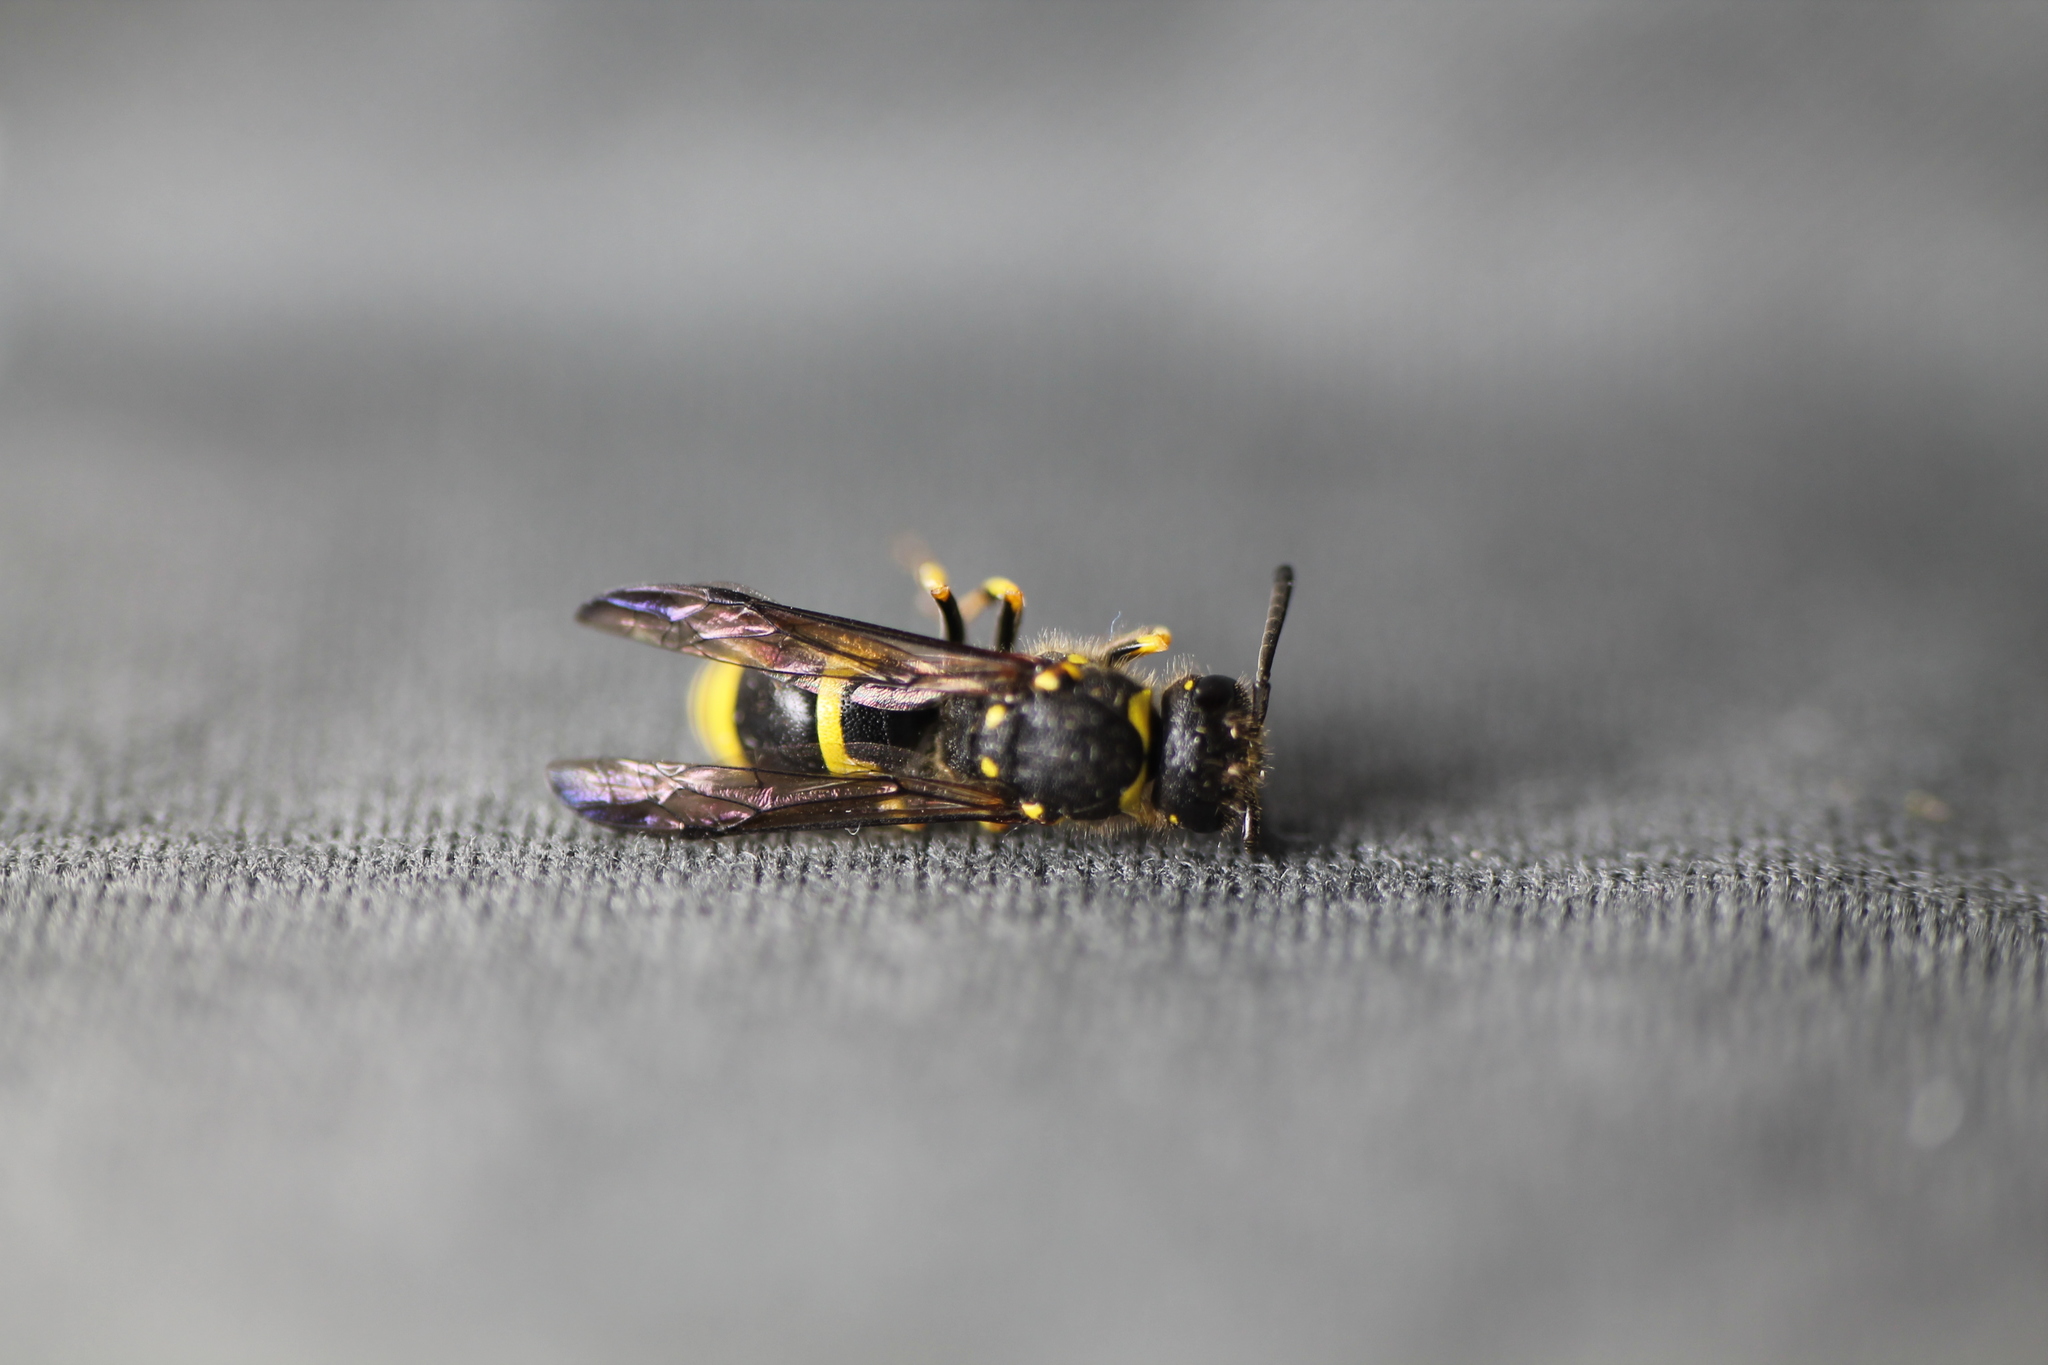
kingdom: Animalia
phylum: Arthropoda
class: Insecta
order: Hymenoptera
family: Vespidae
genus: Ancistrocerus
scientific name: Ancistrocerus gazella
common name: European tube wasp
